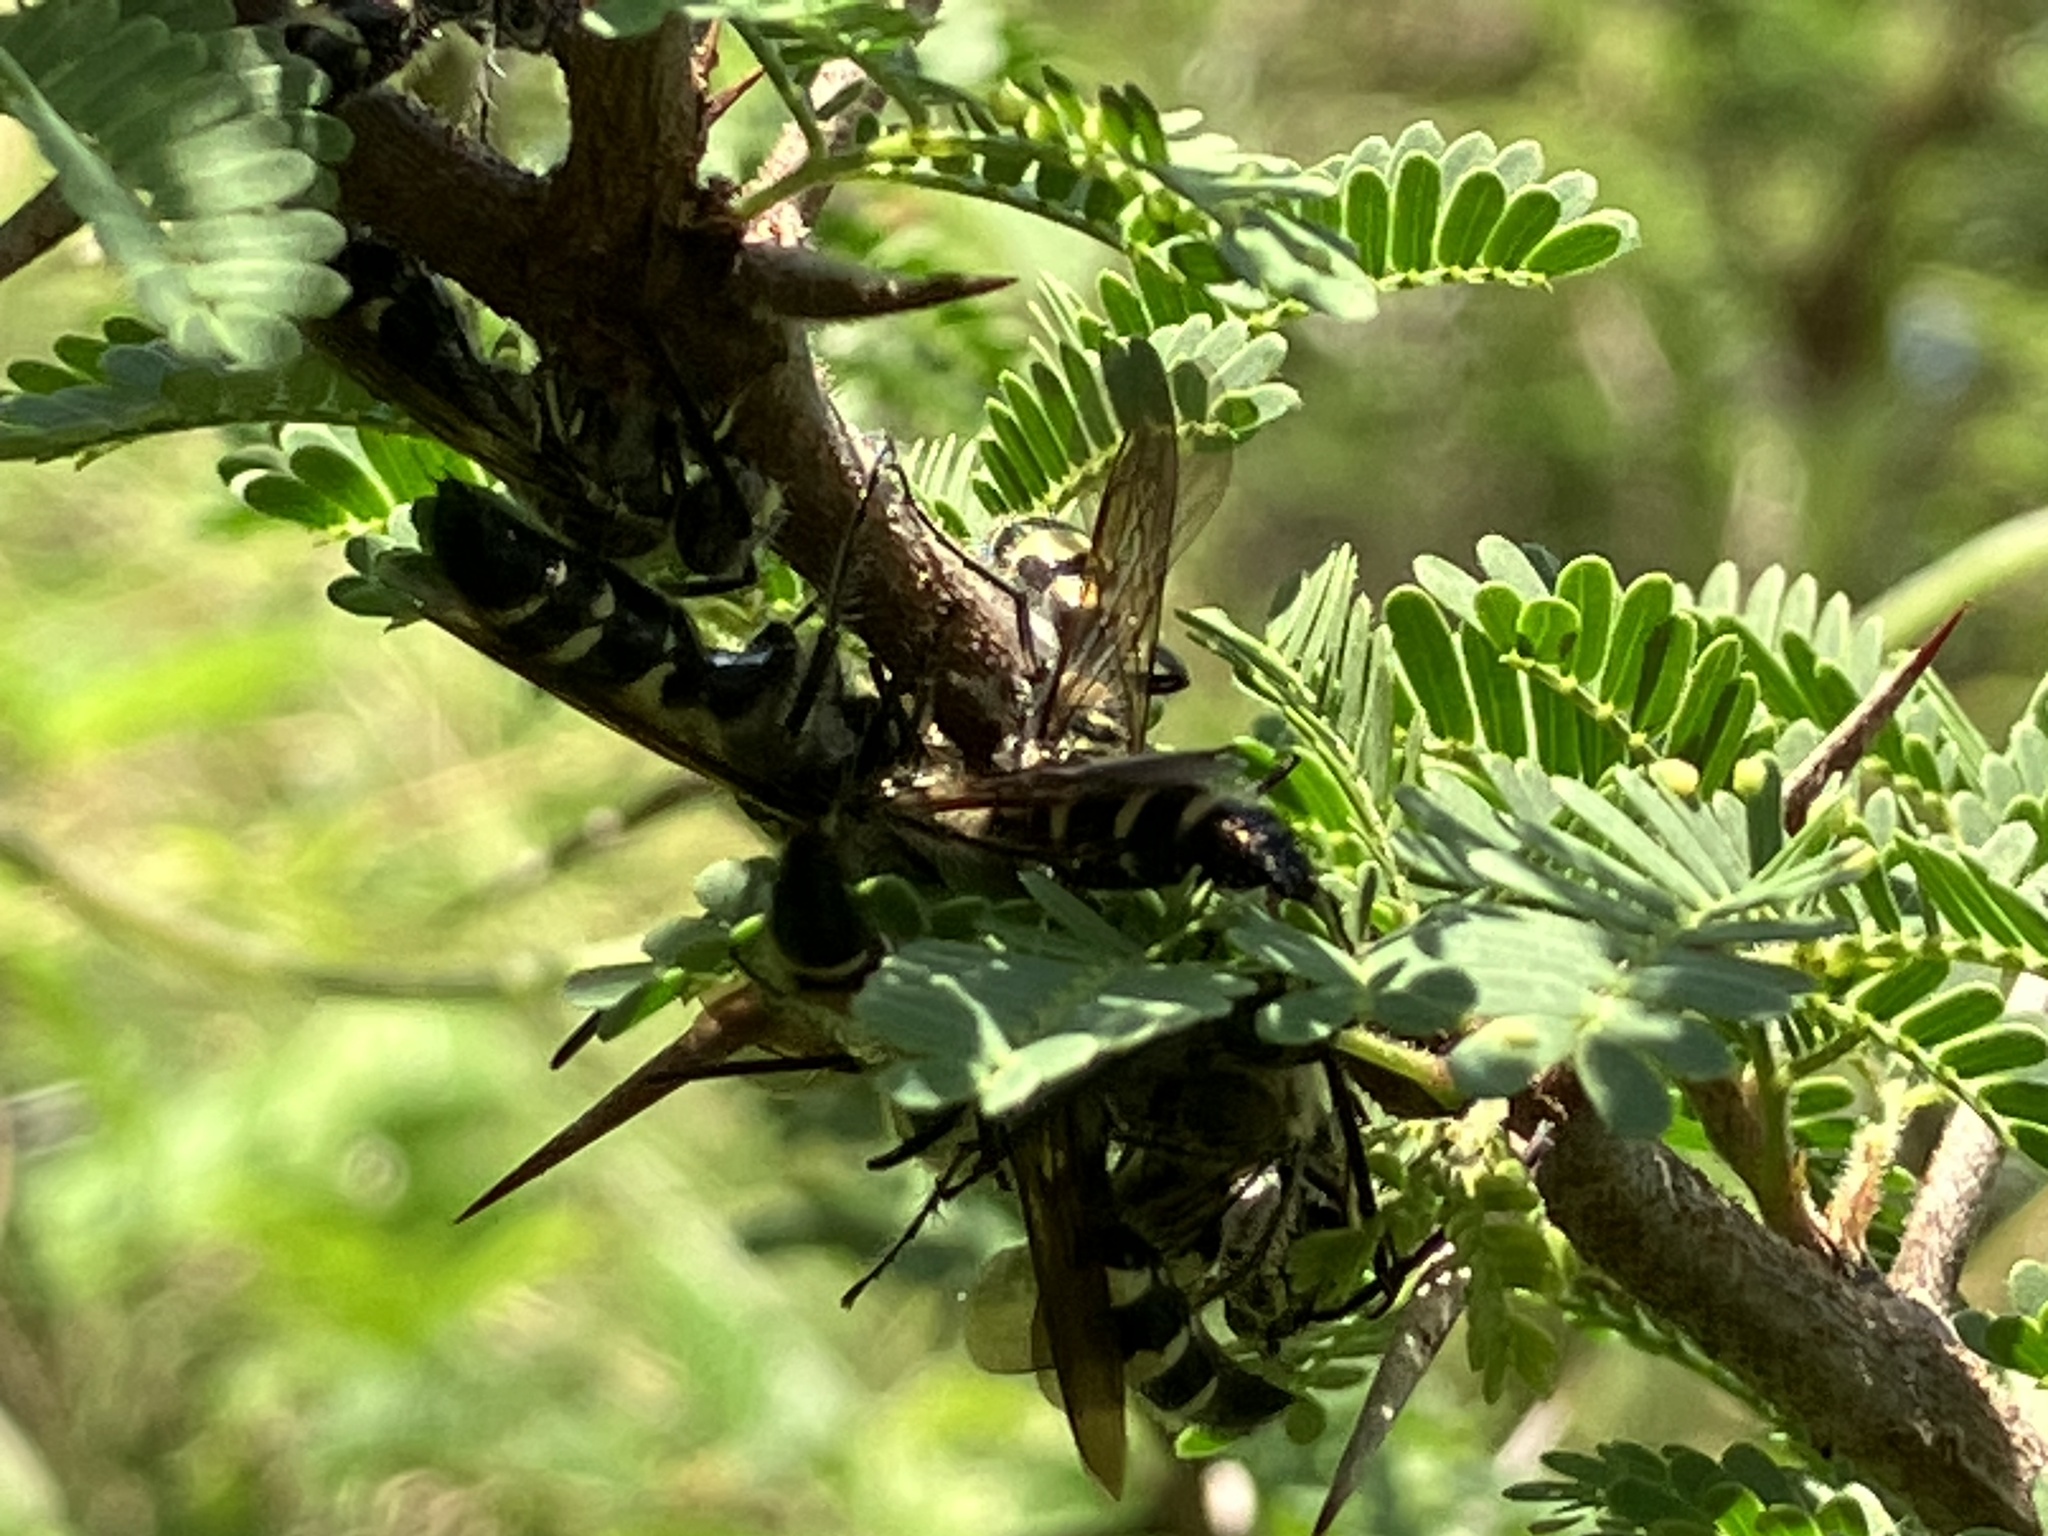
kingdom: Animalia
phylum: Arthropoda
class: Insecta
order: Hymenoptera
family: Scoliidae
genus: Dielis
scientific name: Dielis dorsata
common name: Scoliid wasp
